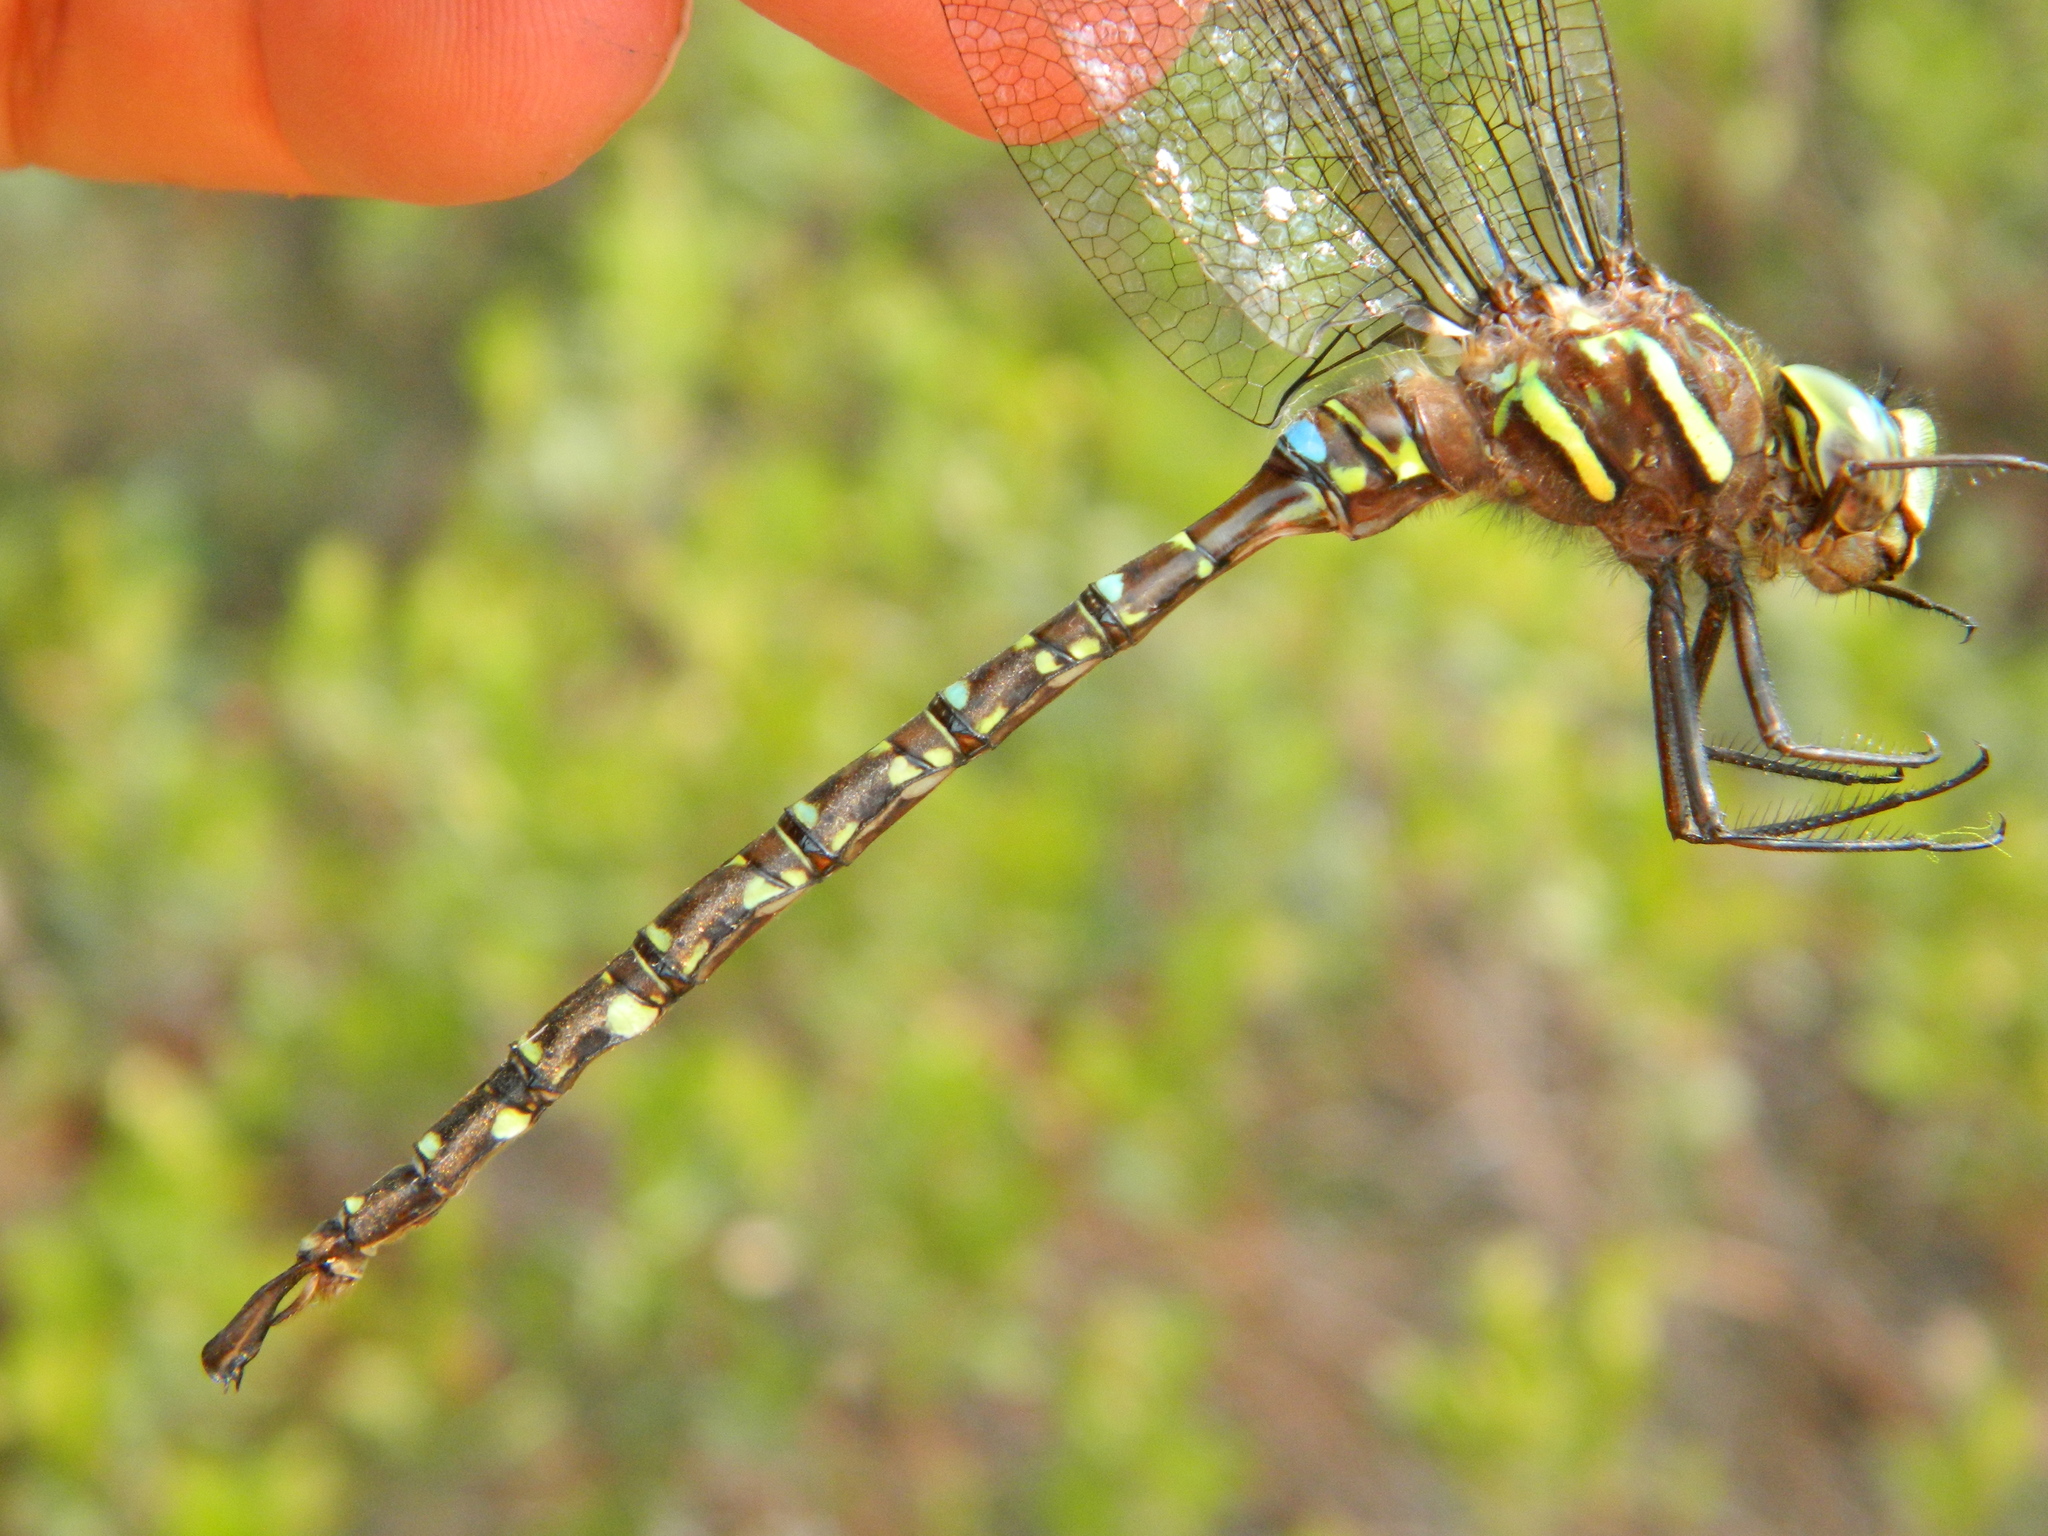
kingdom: Animalia
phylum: Arthropoda
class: Insecta
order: Odonata
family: Aeshnidae
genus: Aeshna
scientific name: Aeshna umbrosa
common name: Shadow darner
